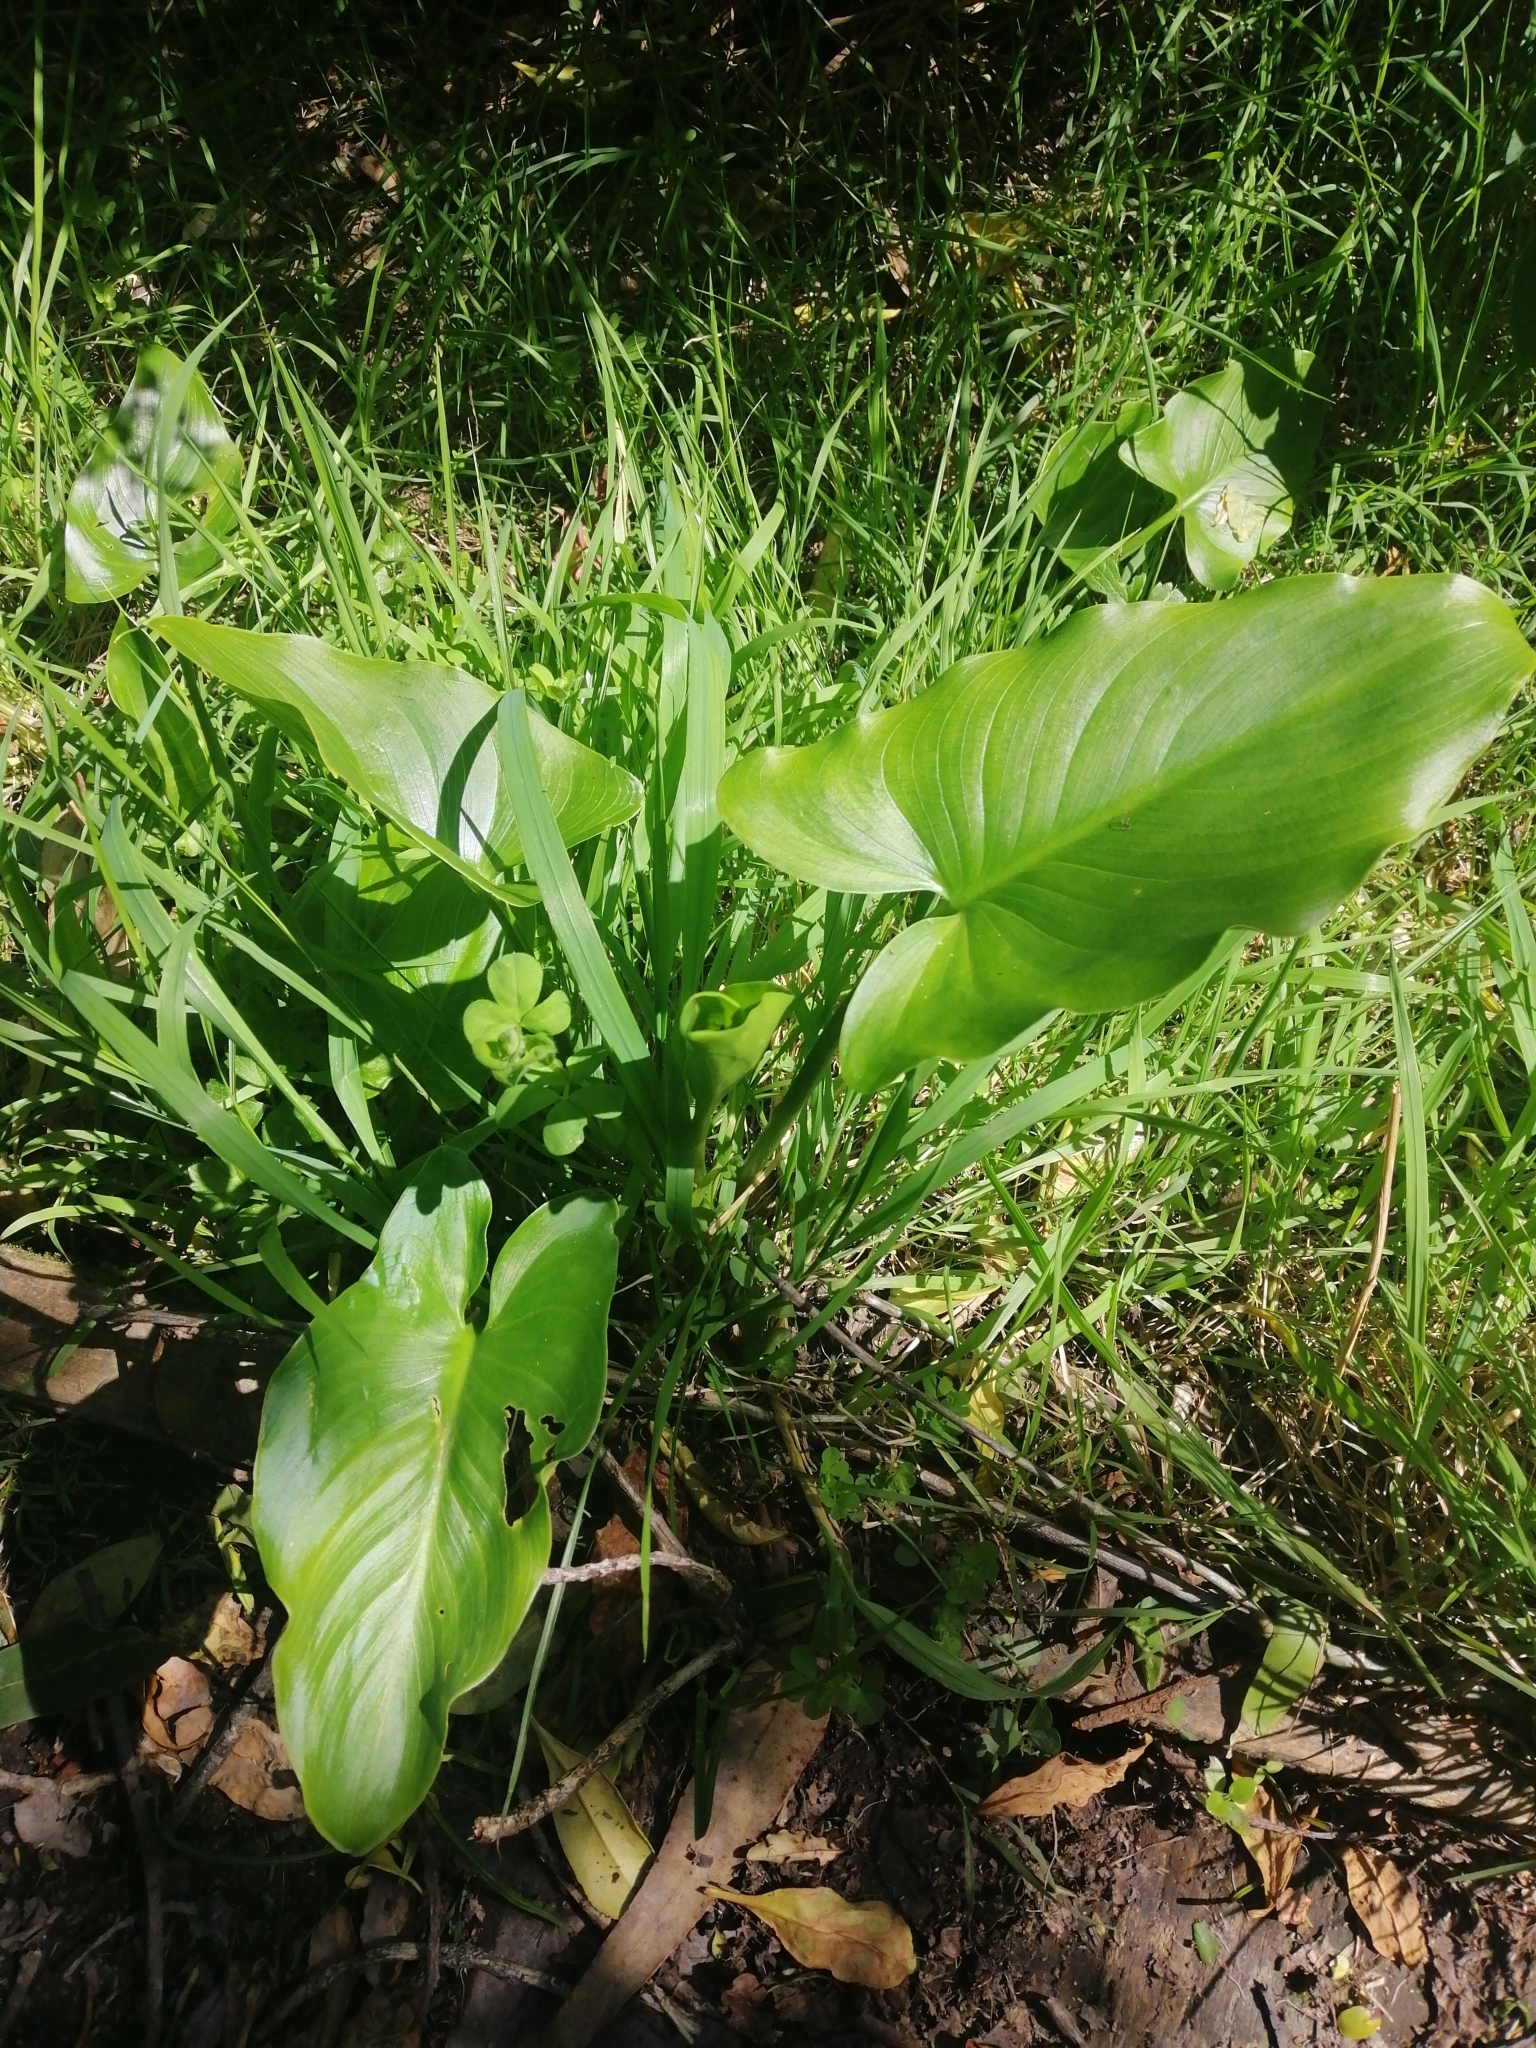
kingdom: Plantae
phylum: Tracheophyta
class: Liliopsida
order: Alismatales
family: Araceae
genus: Zantedeschia
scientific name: Zantedeschia aethiopica
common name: Altar-lily
